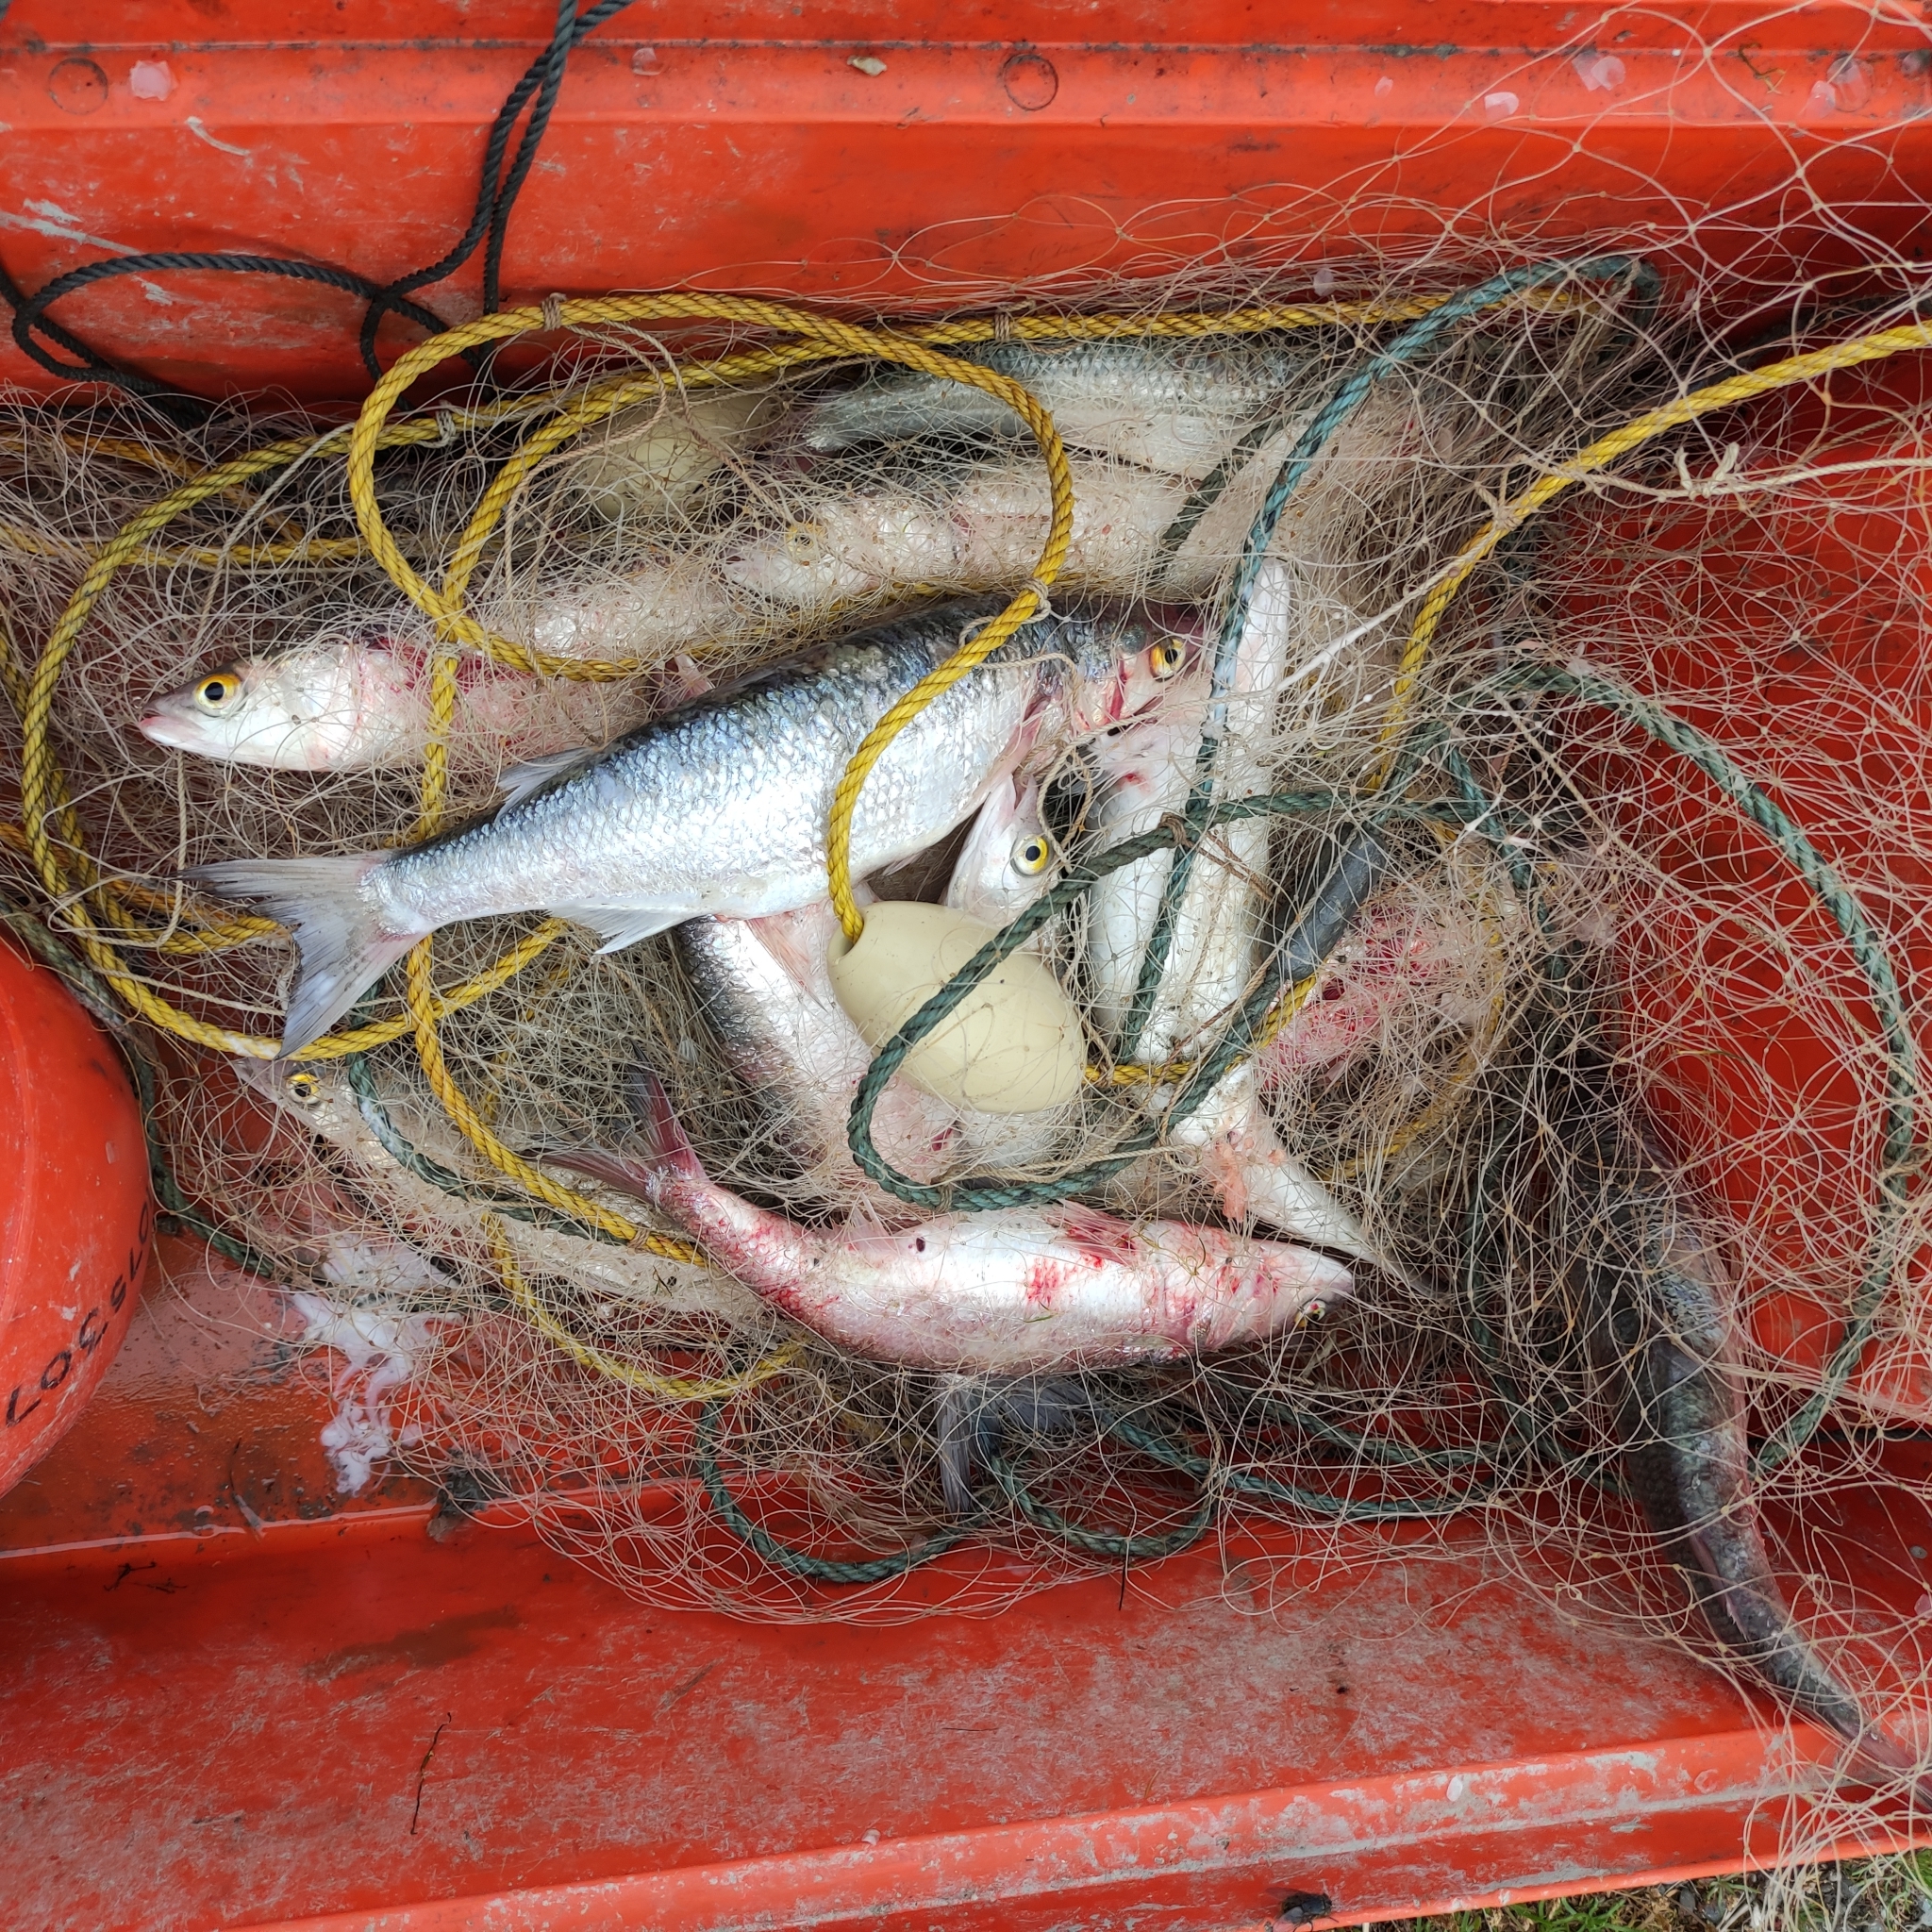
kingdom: Animalia
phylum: Chordata
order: Mugiliformes
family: Mugilidae
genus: Aldrichetta
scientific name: Aldrichetta forsteri
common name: Yellow-eye mullet
